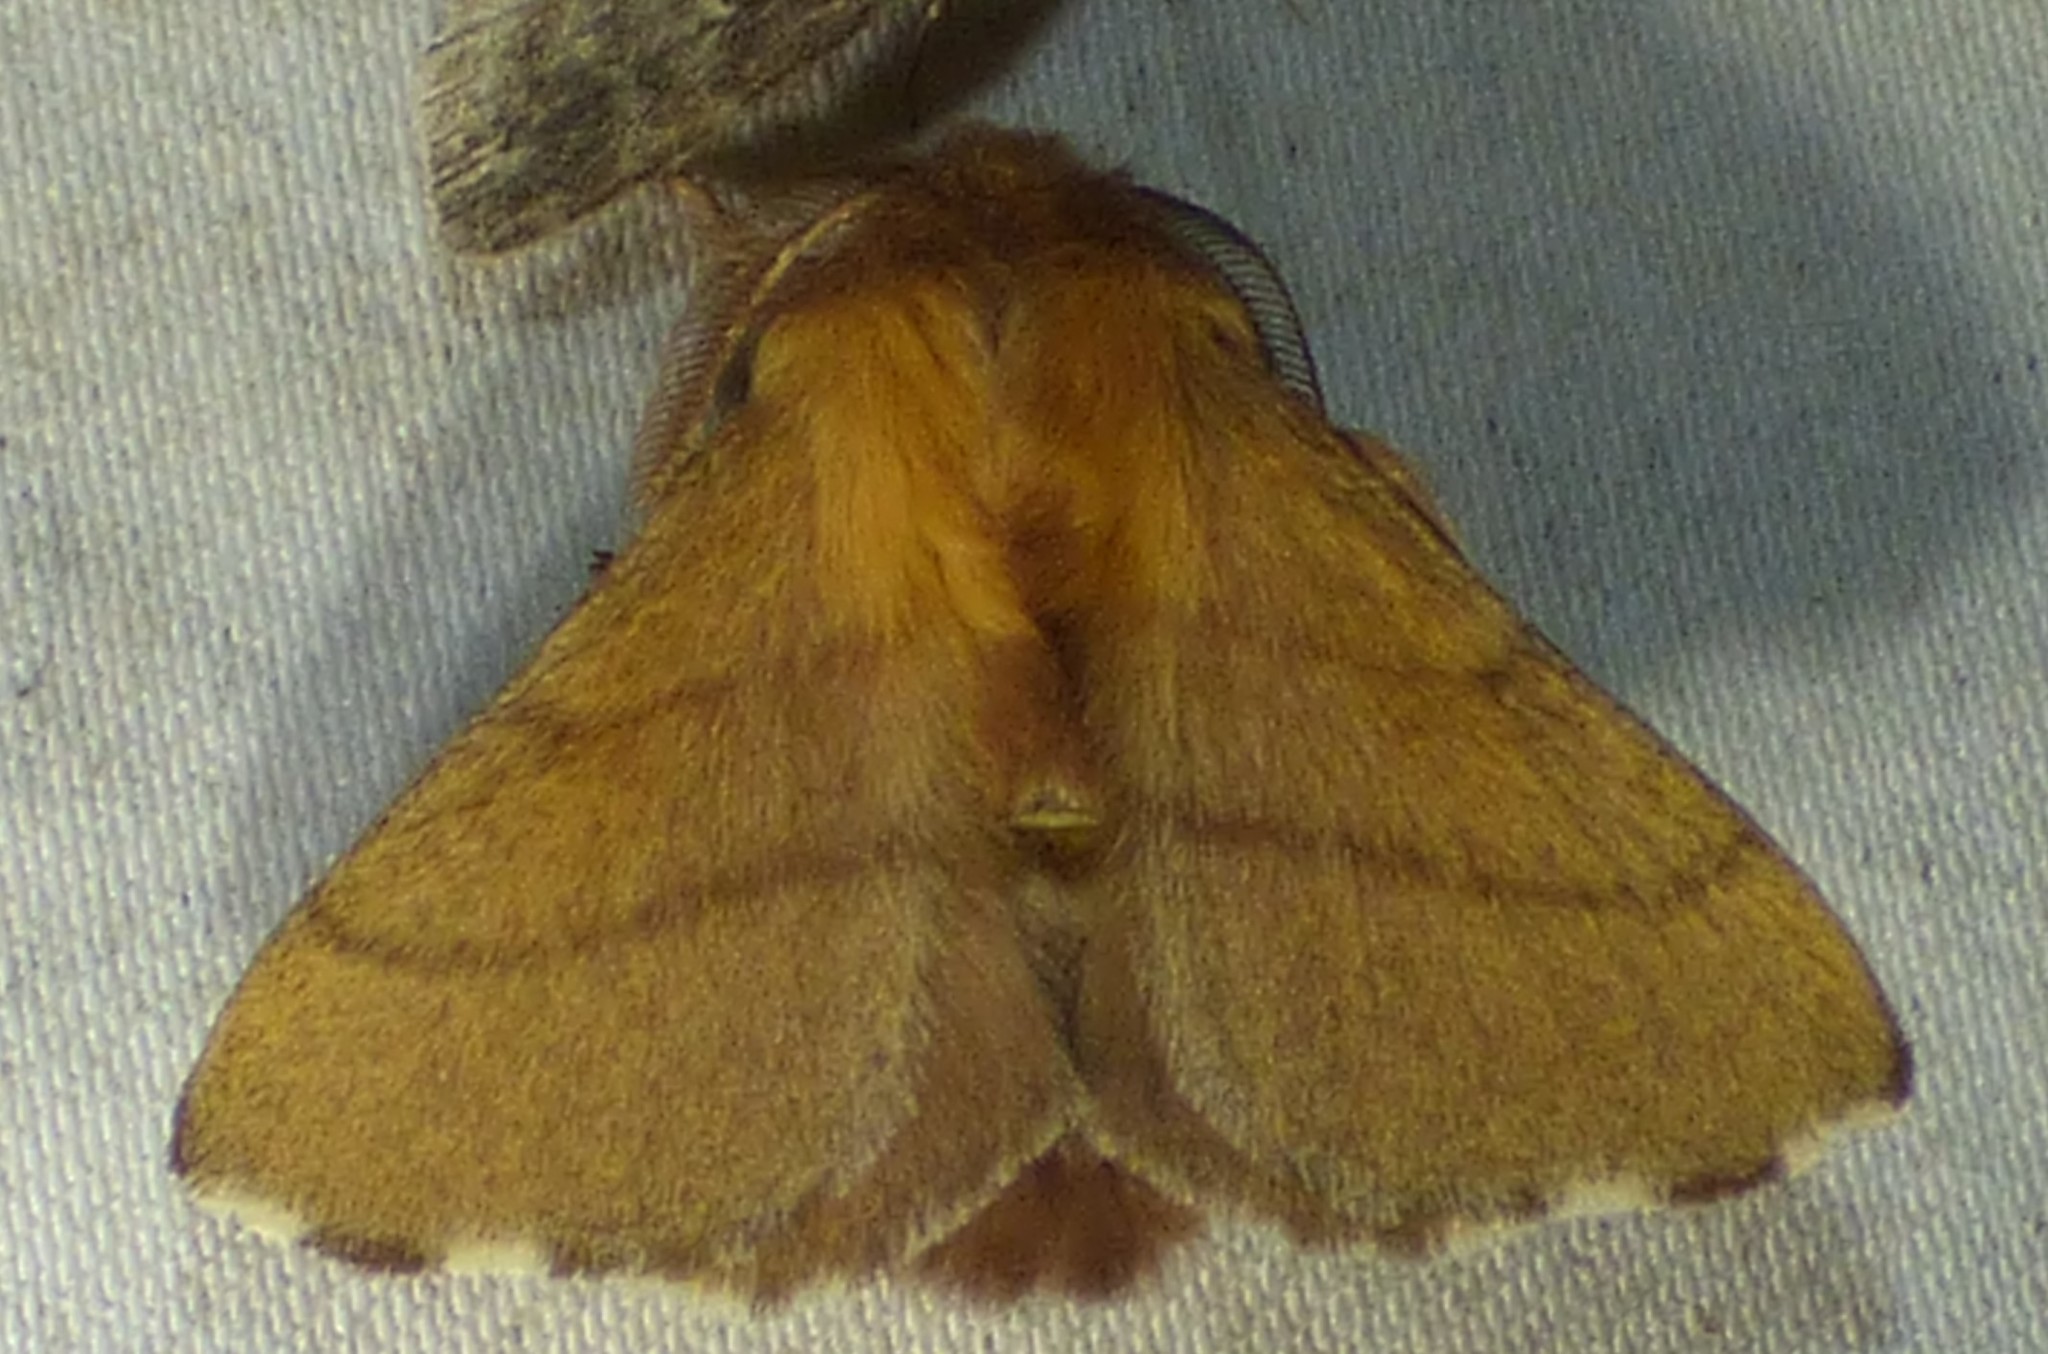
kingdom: Animalia
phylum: Arthropoda
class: Insecta
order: Lepidoptera
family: Lasiocampidae
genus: Malacosoma
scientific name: Malacosoma disstria
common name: Forest tent caterpillar
